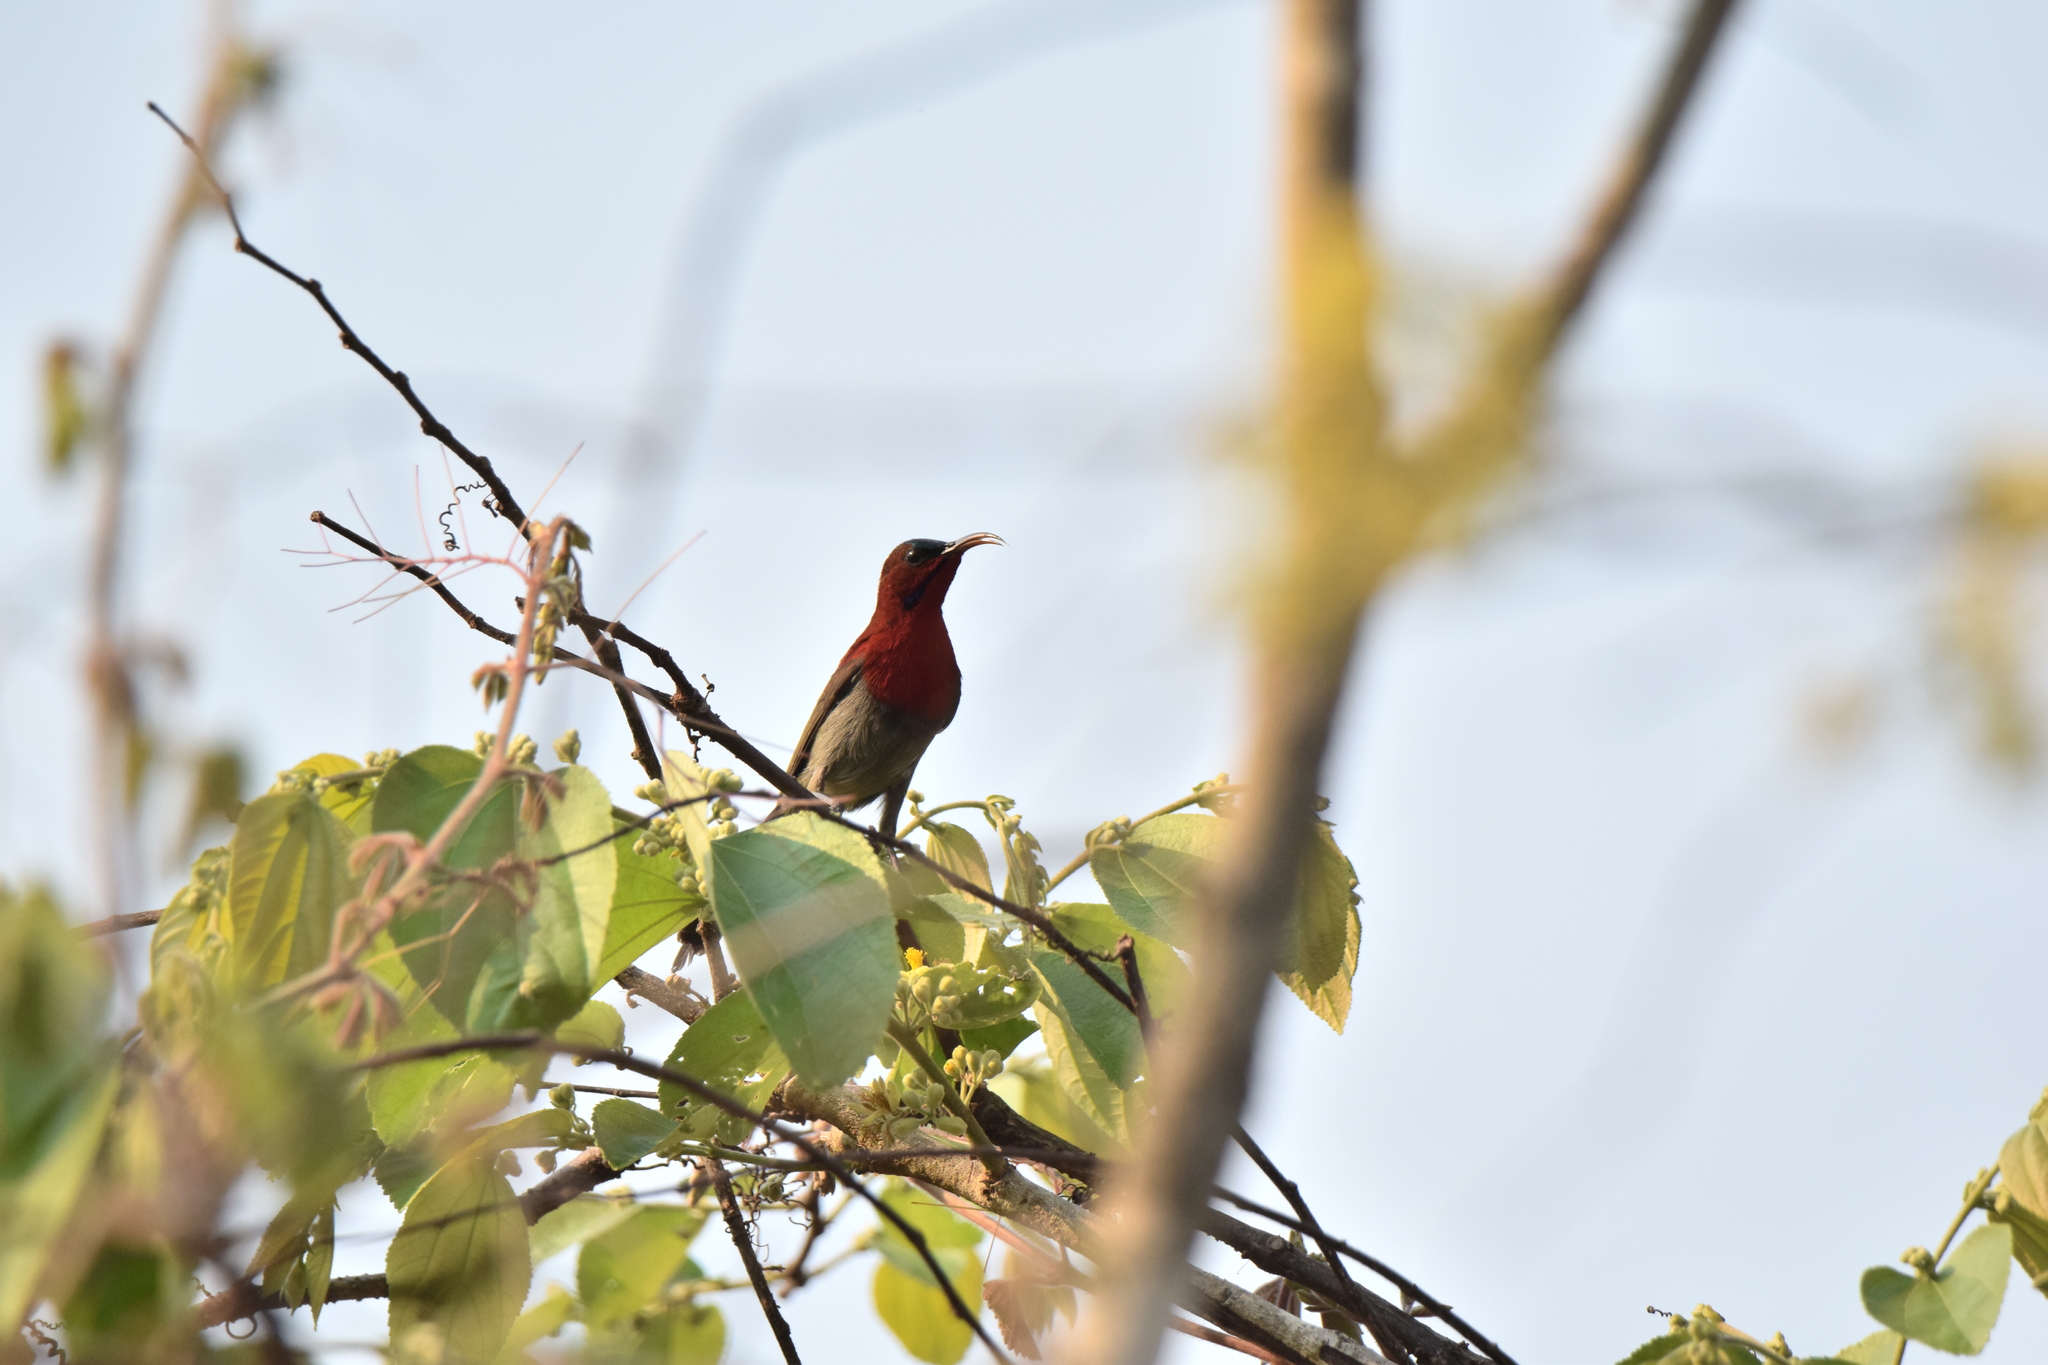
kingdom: Animalia
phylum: Chordata
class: Aves
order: Passeriformes
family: Nectariniidae
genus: Aethopyga
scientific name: Aethopyga siparaja
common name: Crimson sunbird
